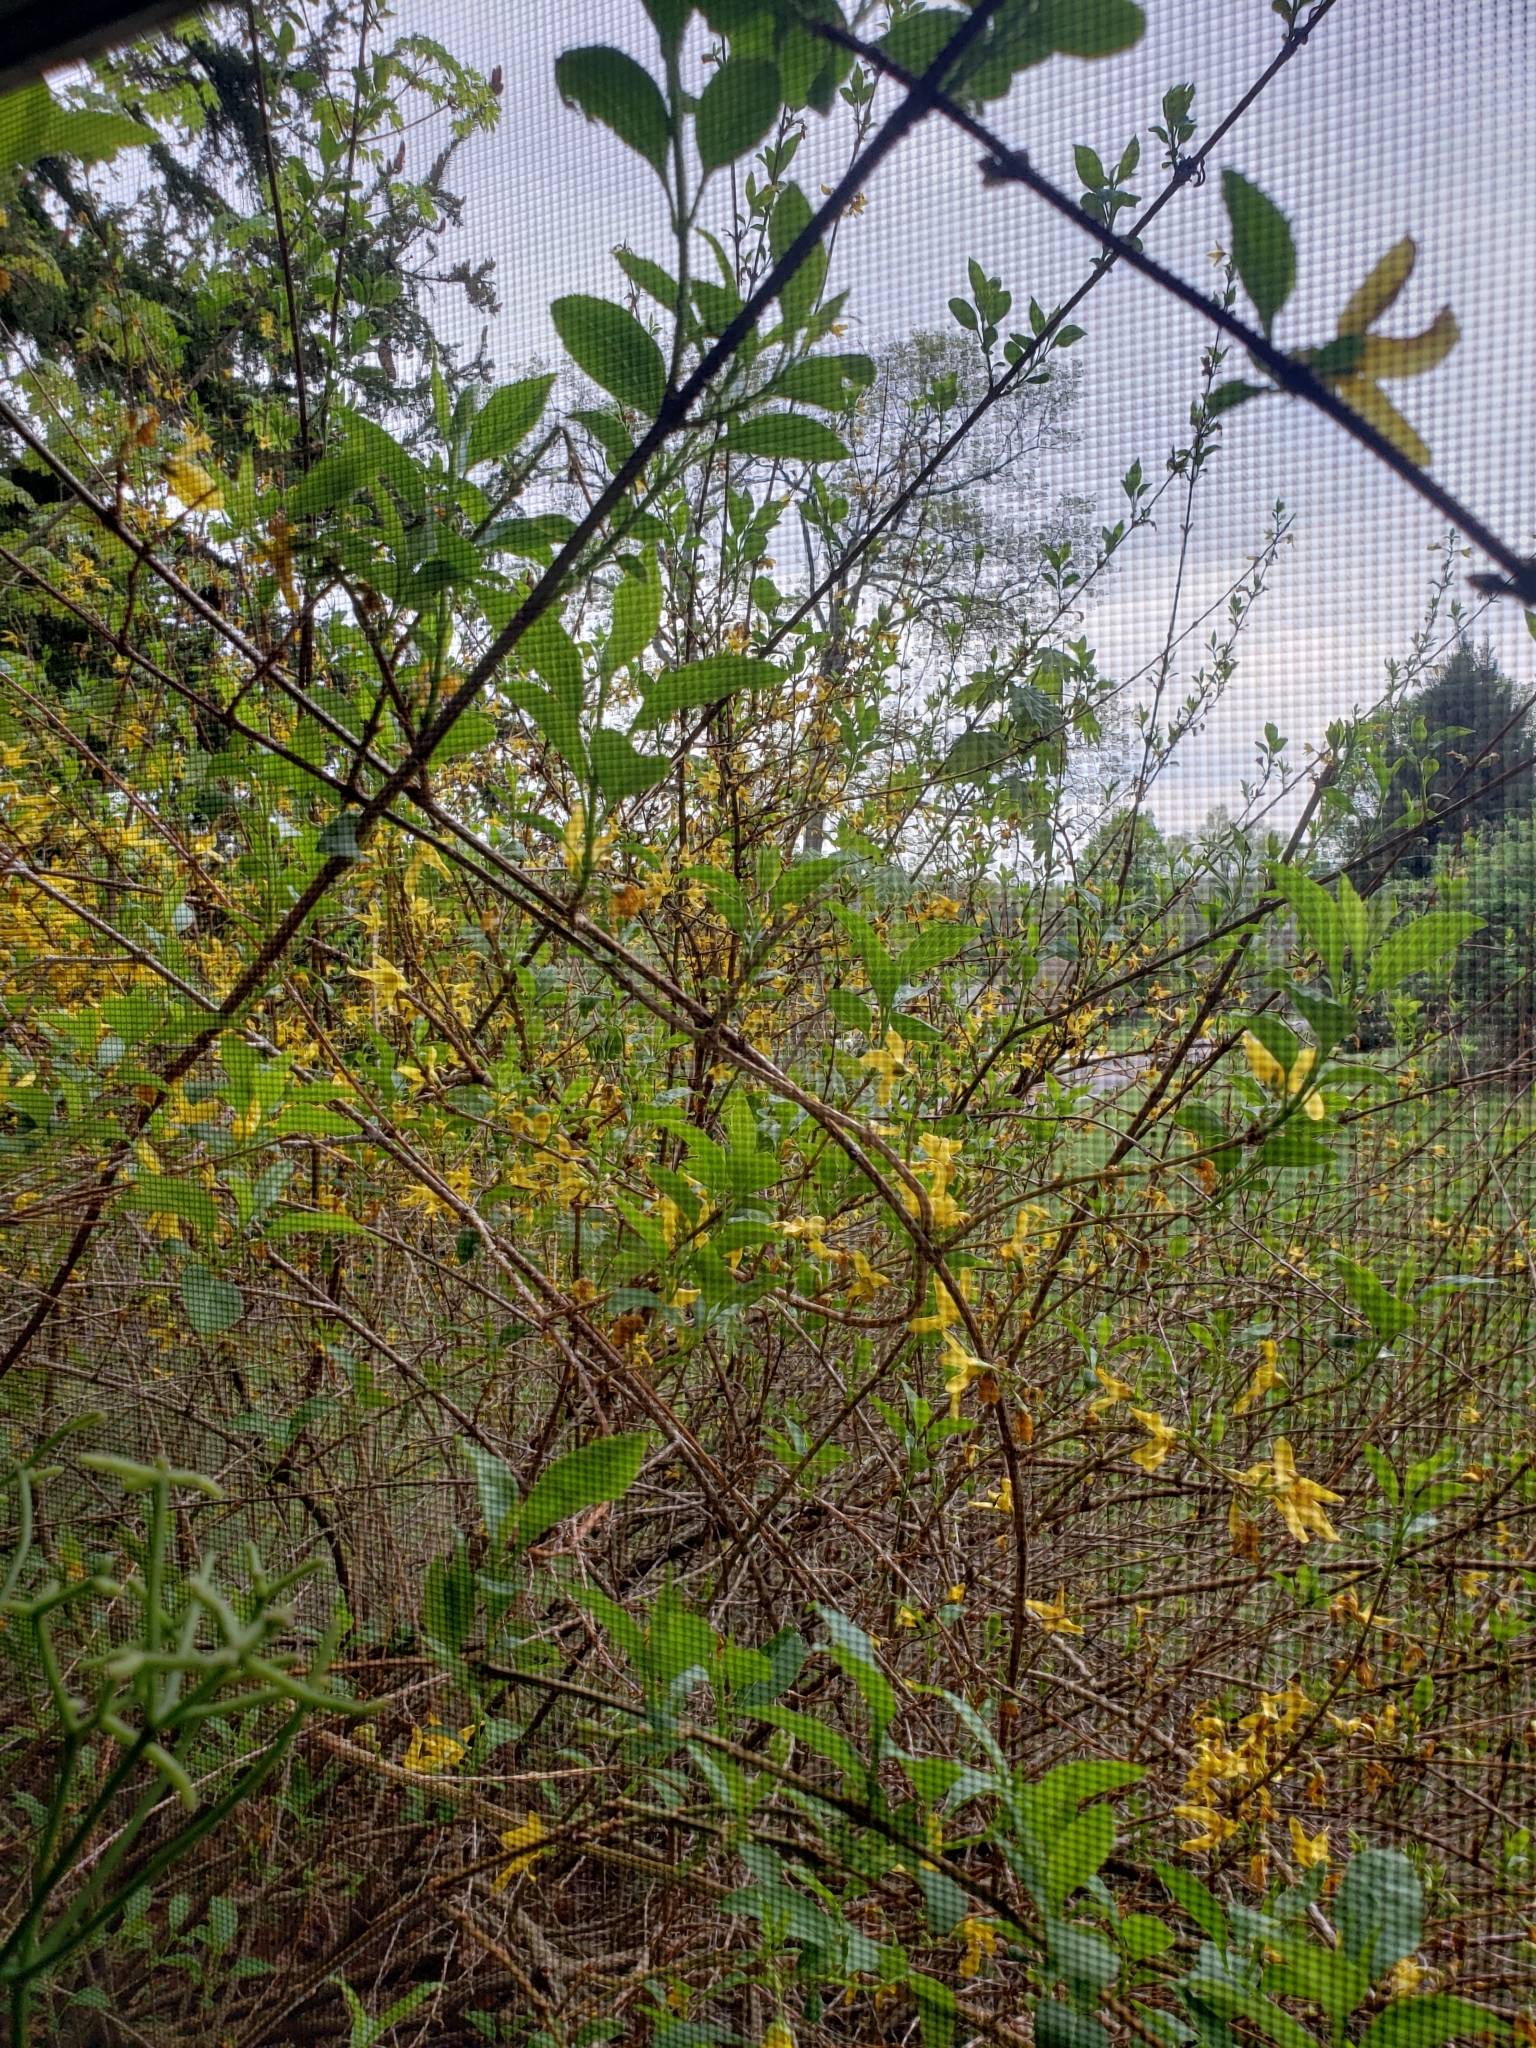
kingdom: Animalia
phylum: Chordata
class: Aves
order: Passeriformes
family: Passerellidae
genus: Zonotrichia
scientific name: Zonotrichia albicollis
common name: White-throated sparrow
